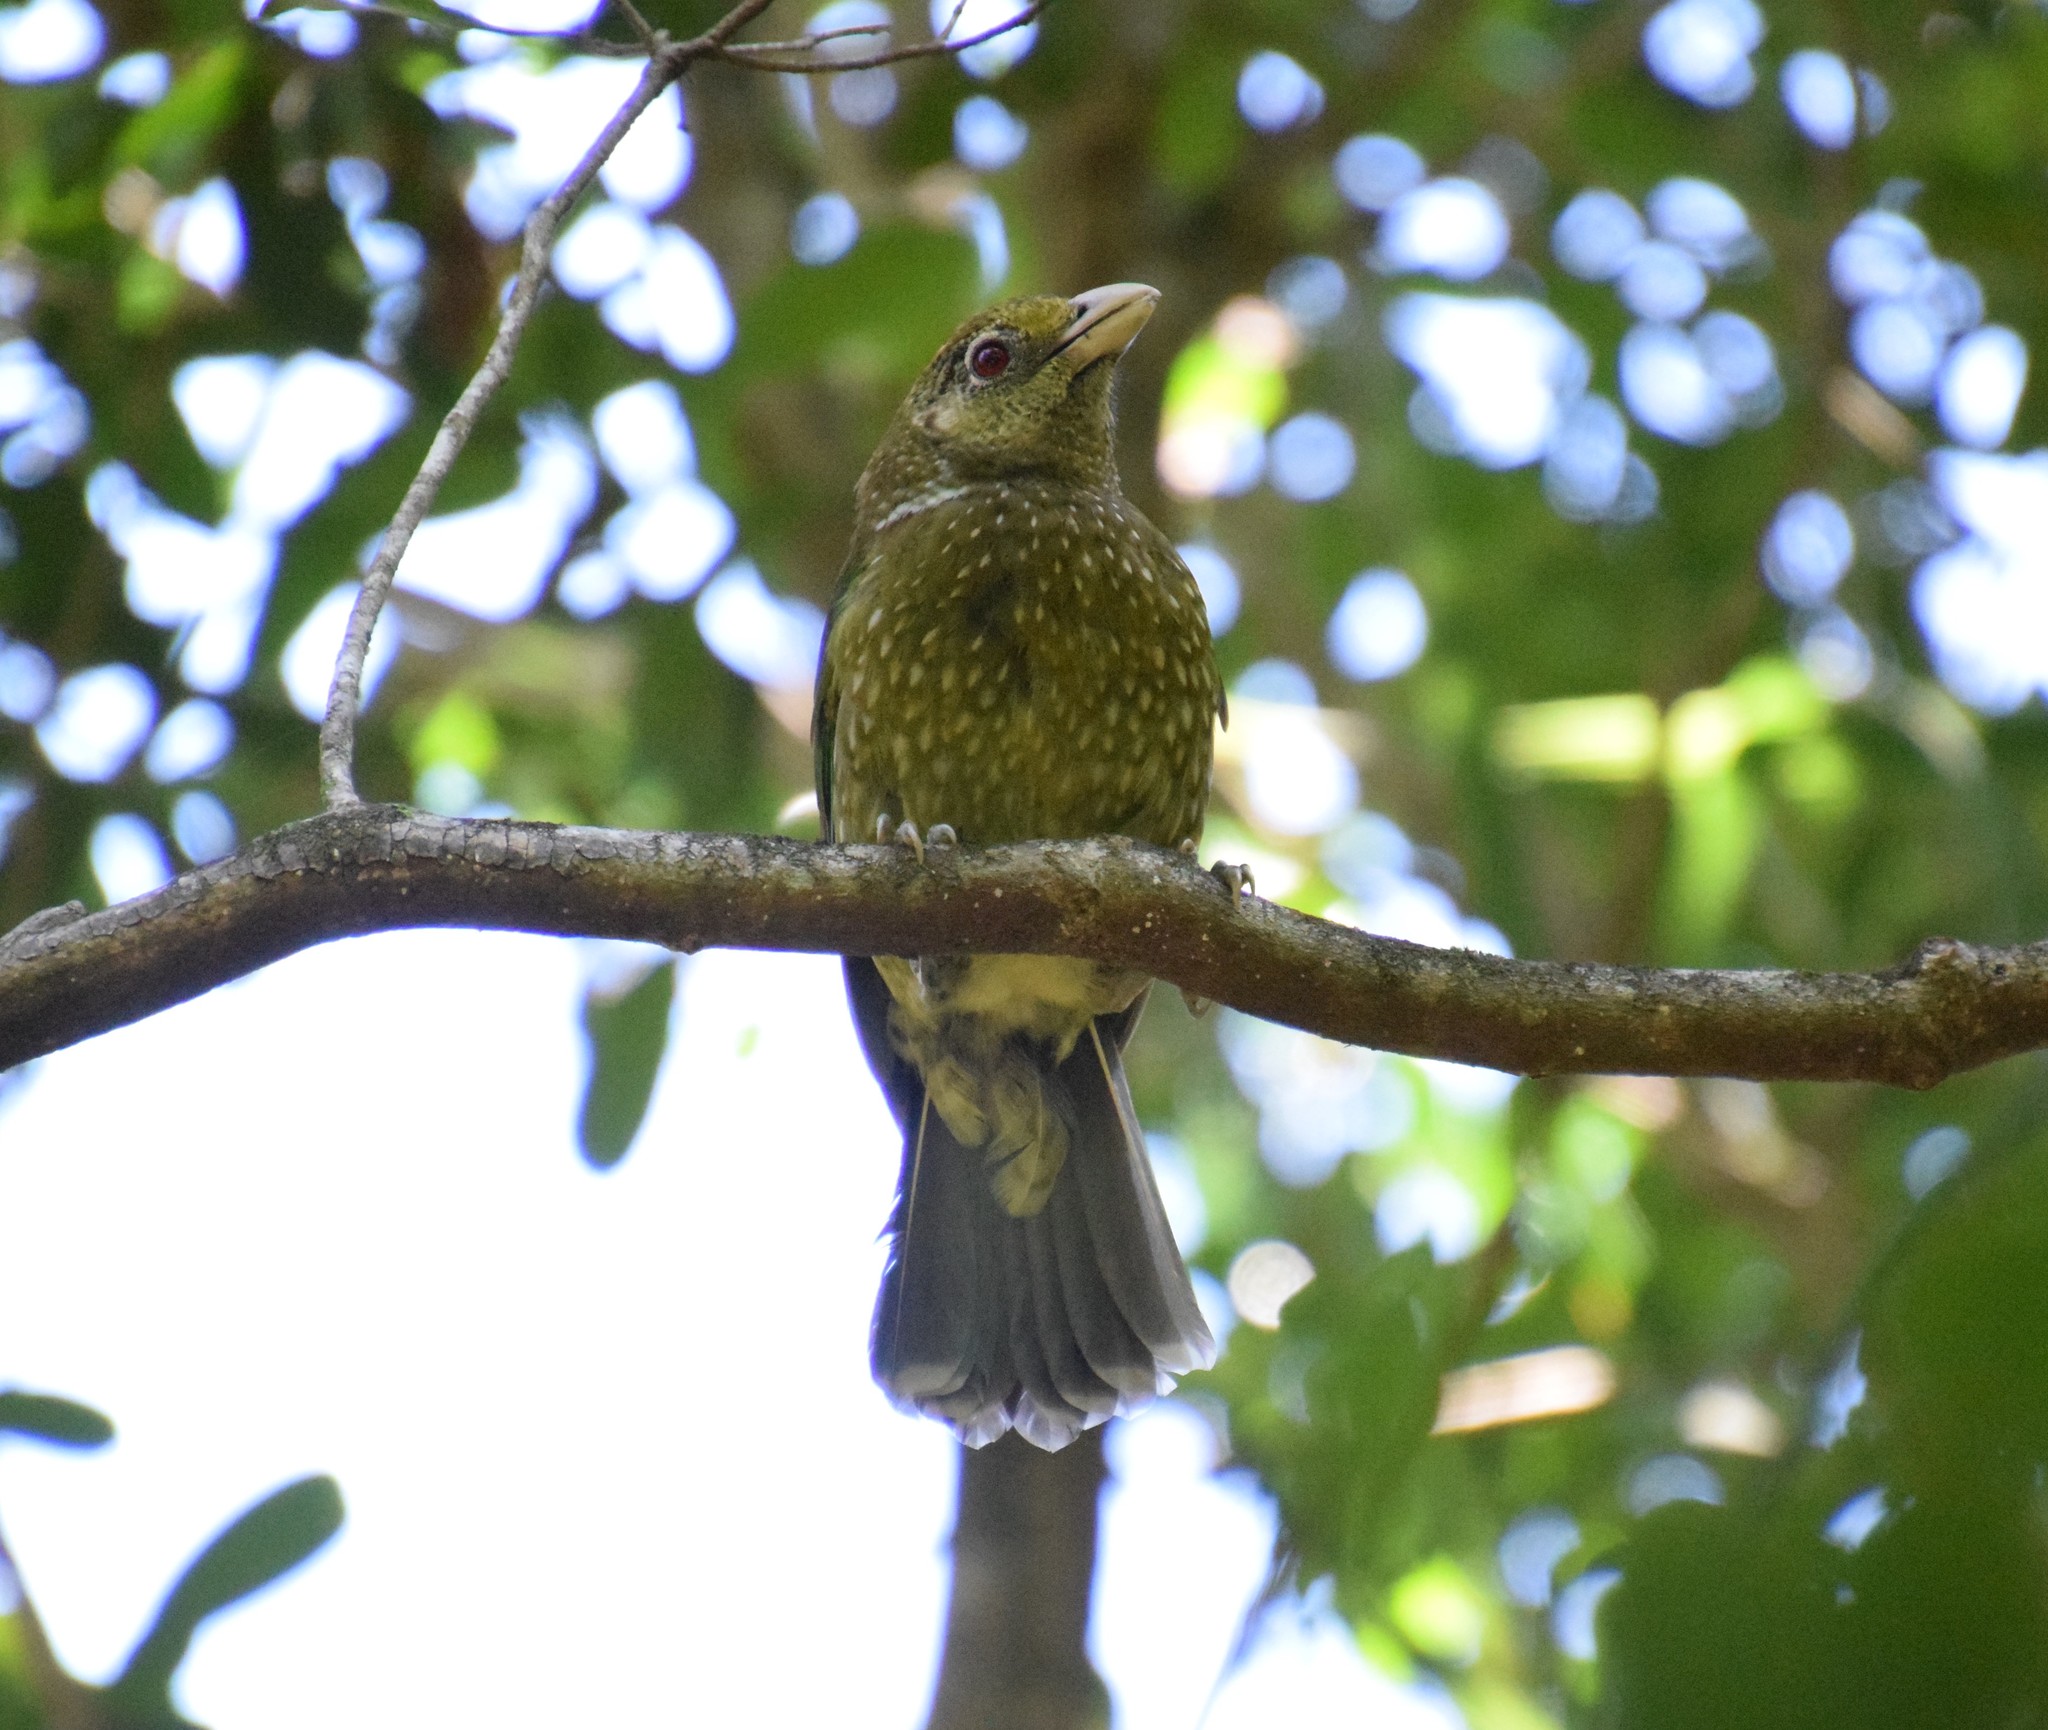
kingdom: Animalia
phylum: Chordata
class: Aves
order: Passeriformes
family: Ptilonorhynchidae
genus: Ailuroedus
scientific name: Ailuroedus crassirostris
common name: Green catbird
